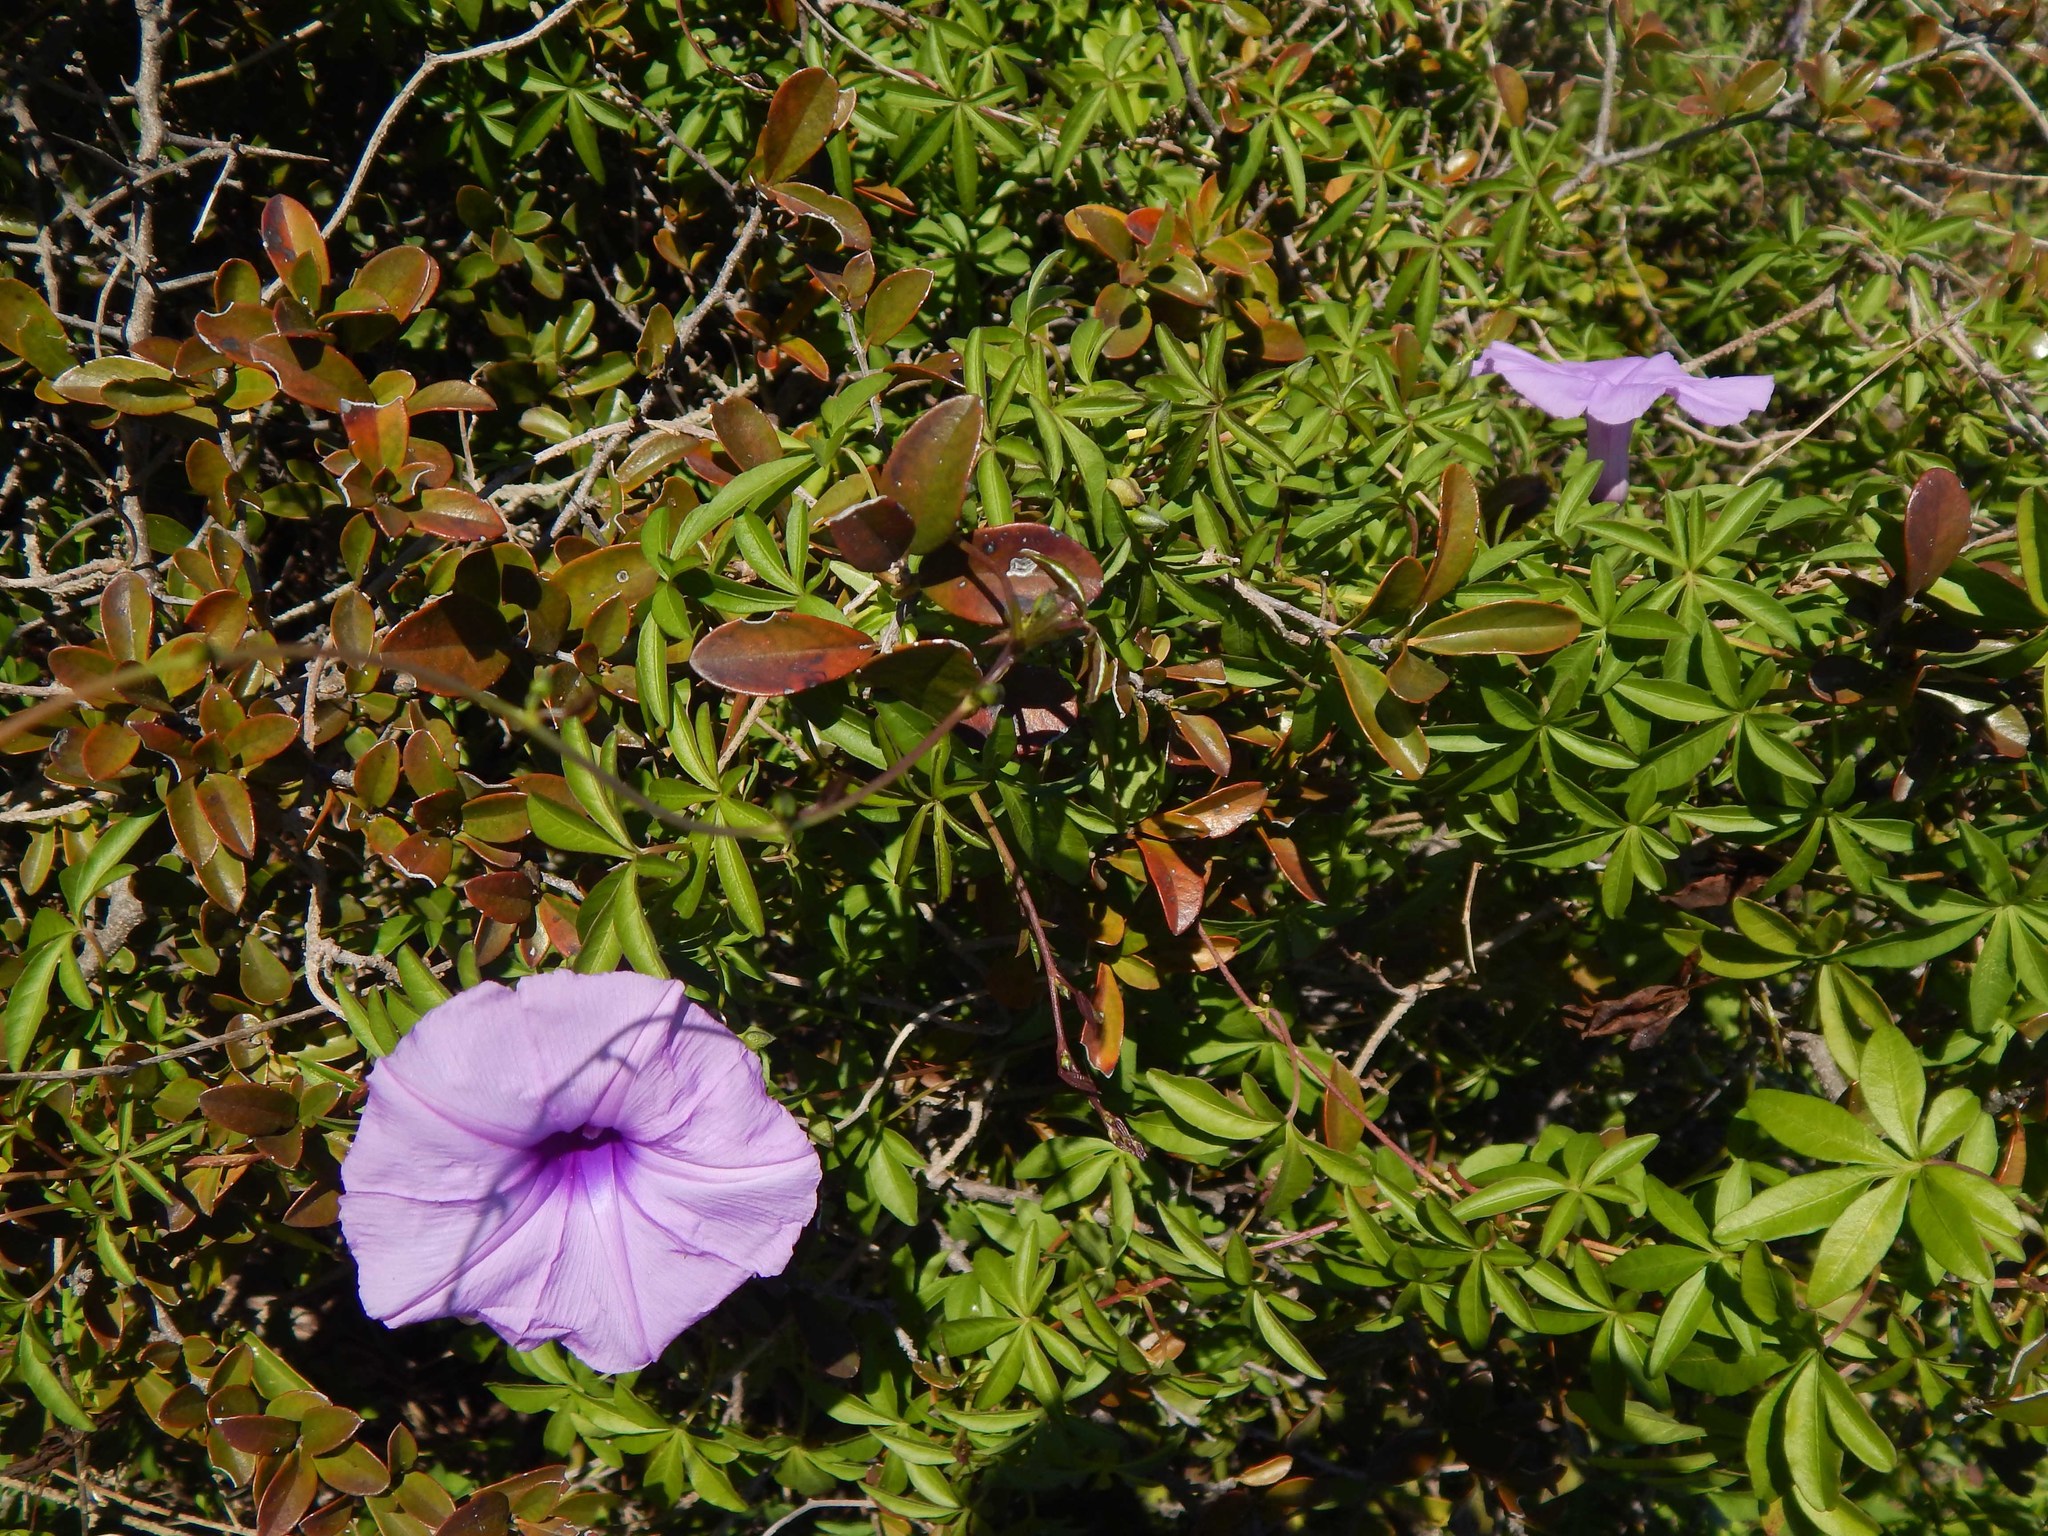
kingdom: Plantae
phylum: Tracheophyta
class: Magnoliopsida
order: Solanales
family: Convolvulaceae
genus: Ipomoea
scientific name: Ipomoea cairica
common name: Mile a minute vine
